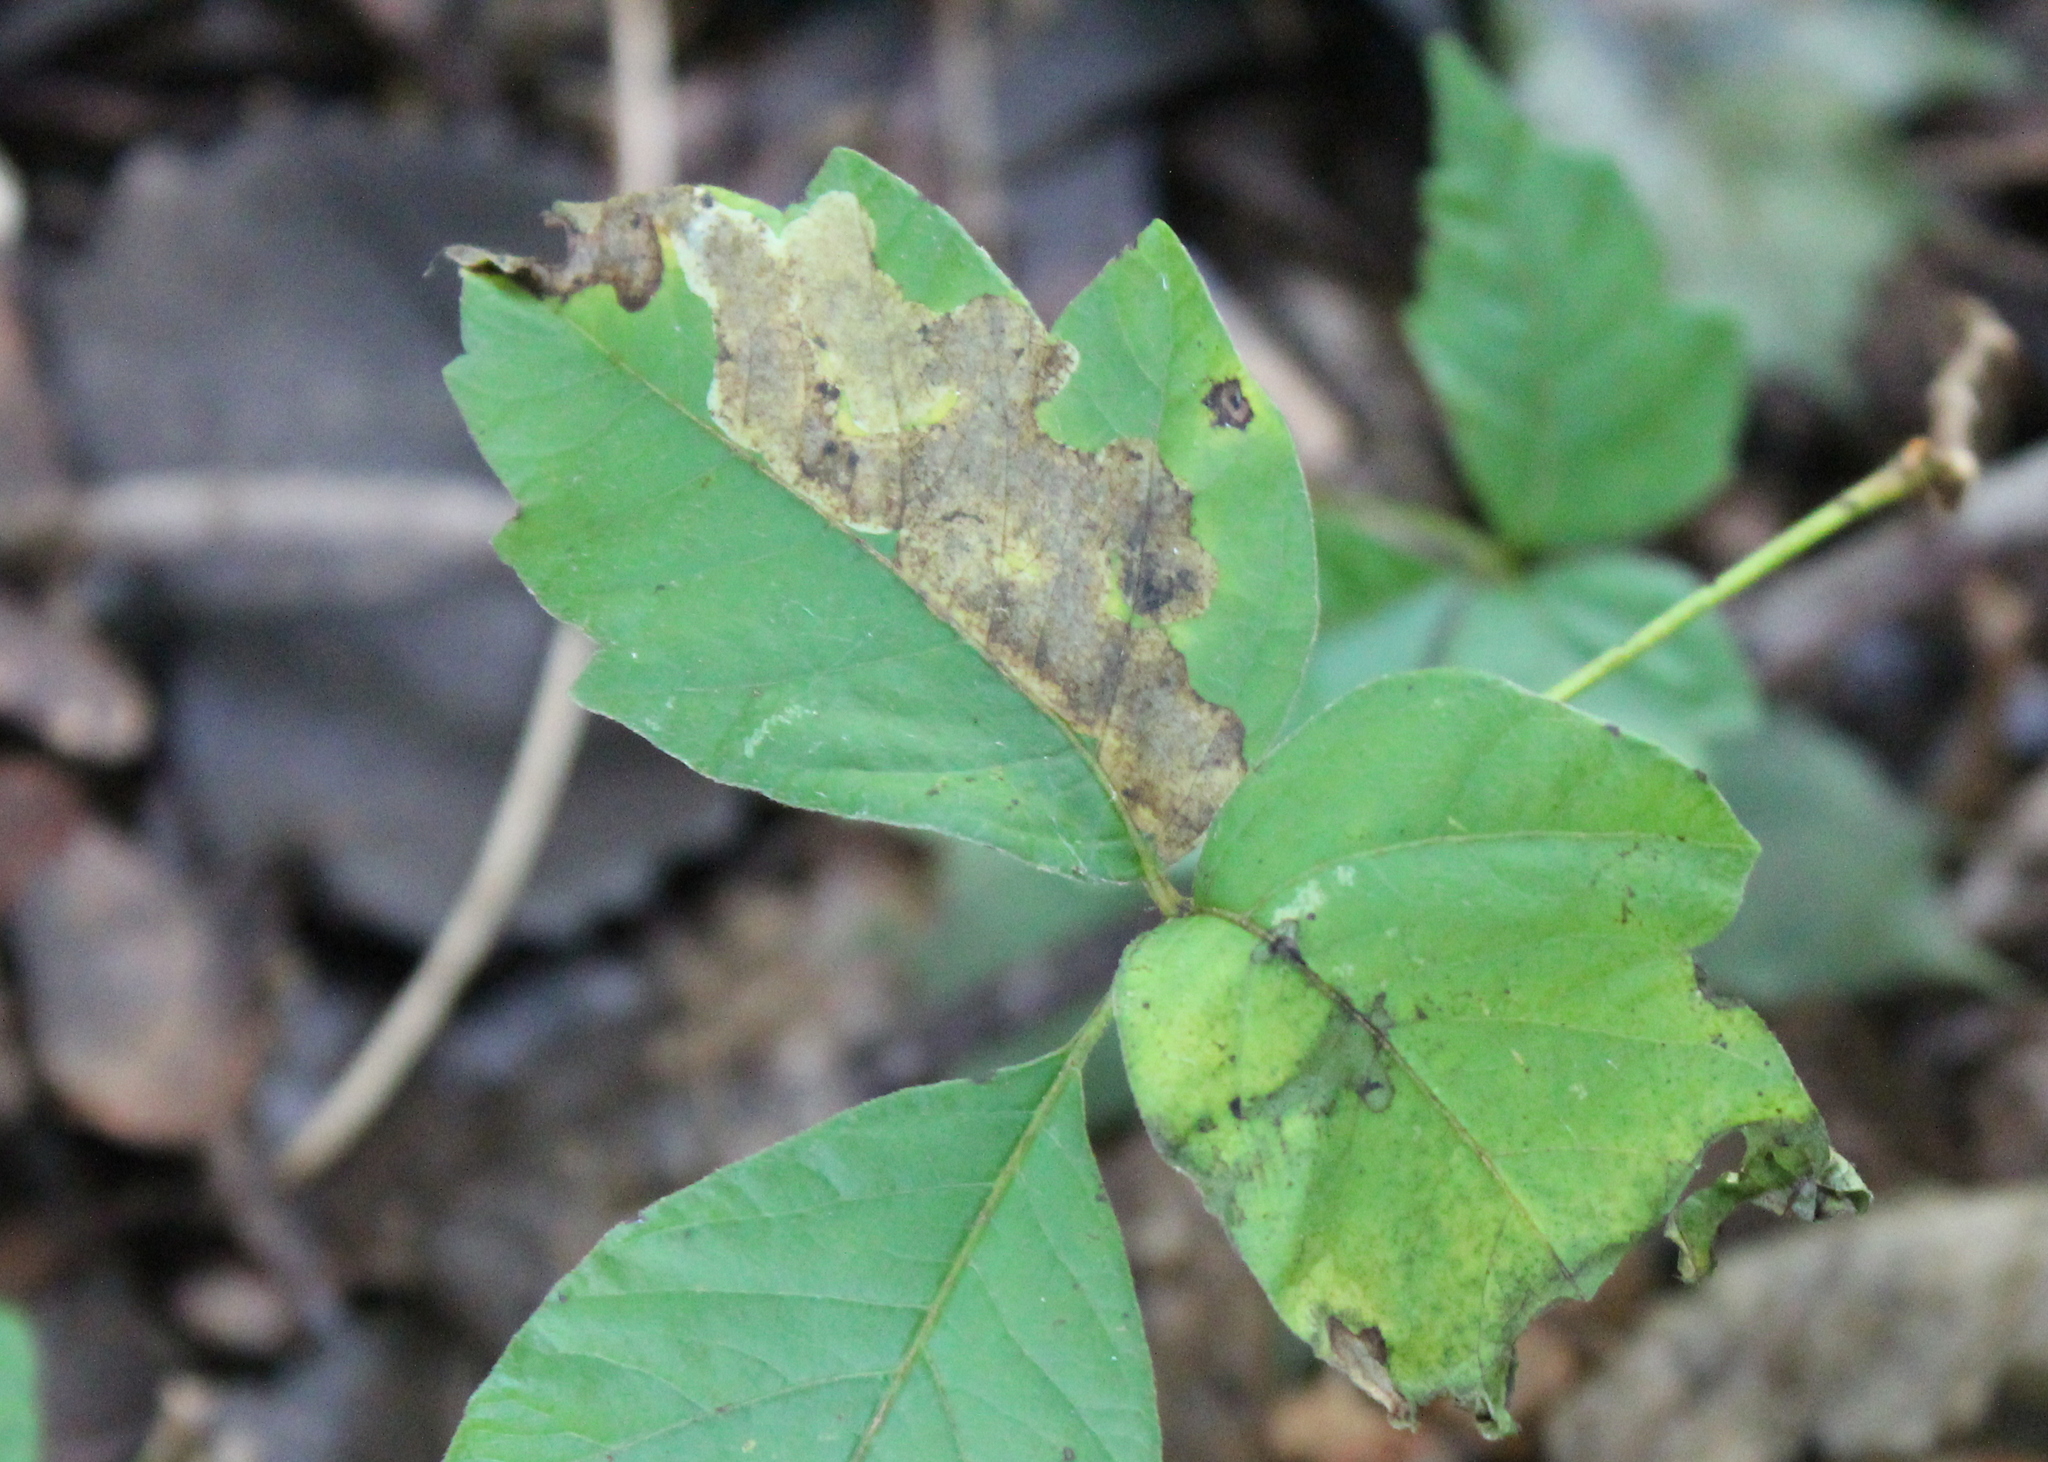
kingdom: Animalia
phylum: Arthropoda
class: Insecta
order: Lepidoptera
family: Gracillariidae
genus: Cameraria
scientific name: Cameraria guttifinitella
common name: Poison ivy leaf-miner moth
